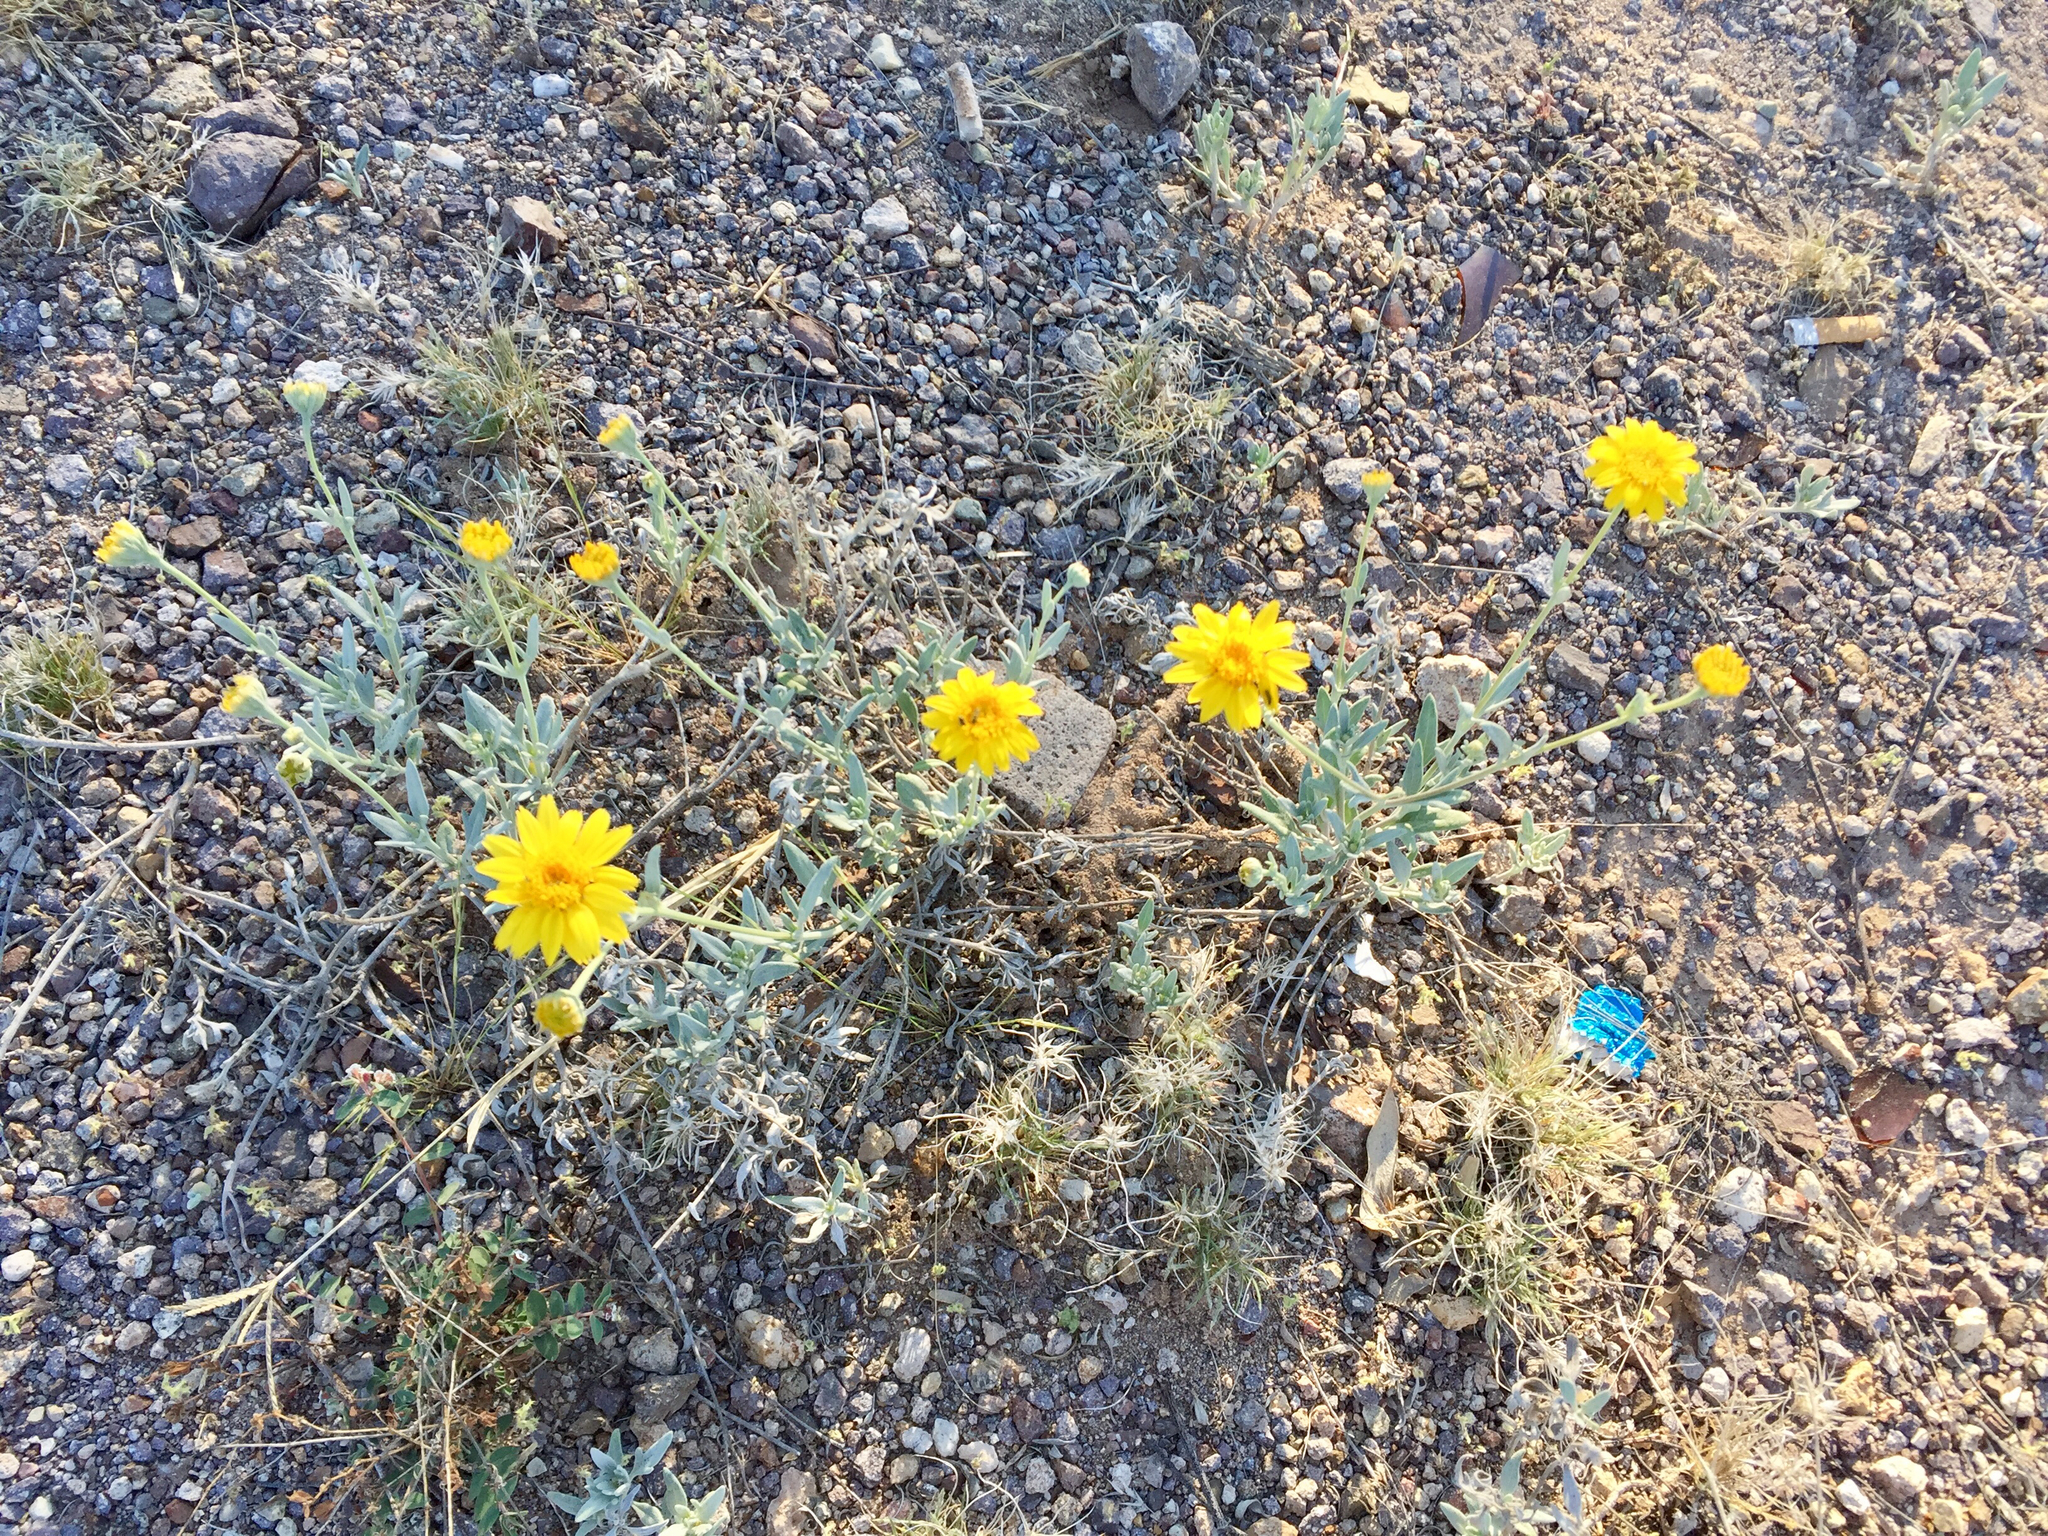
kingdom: Plantae
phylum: Tracheophyta
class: Magnoliopsida
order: Asterales
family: Asteraceae
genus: Baileya
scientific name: Baileya multiradiata
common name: Desert-marigold
